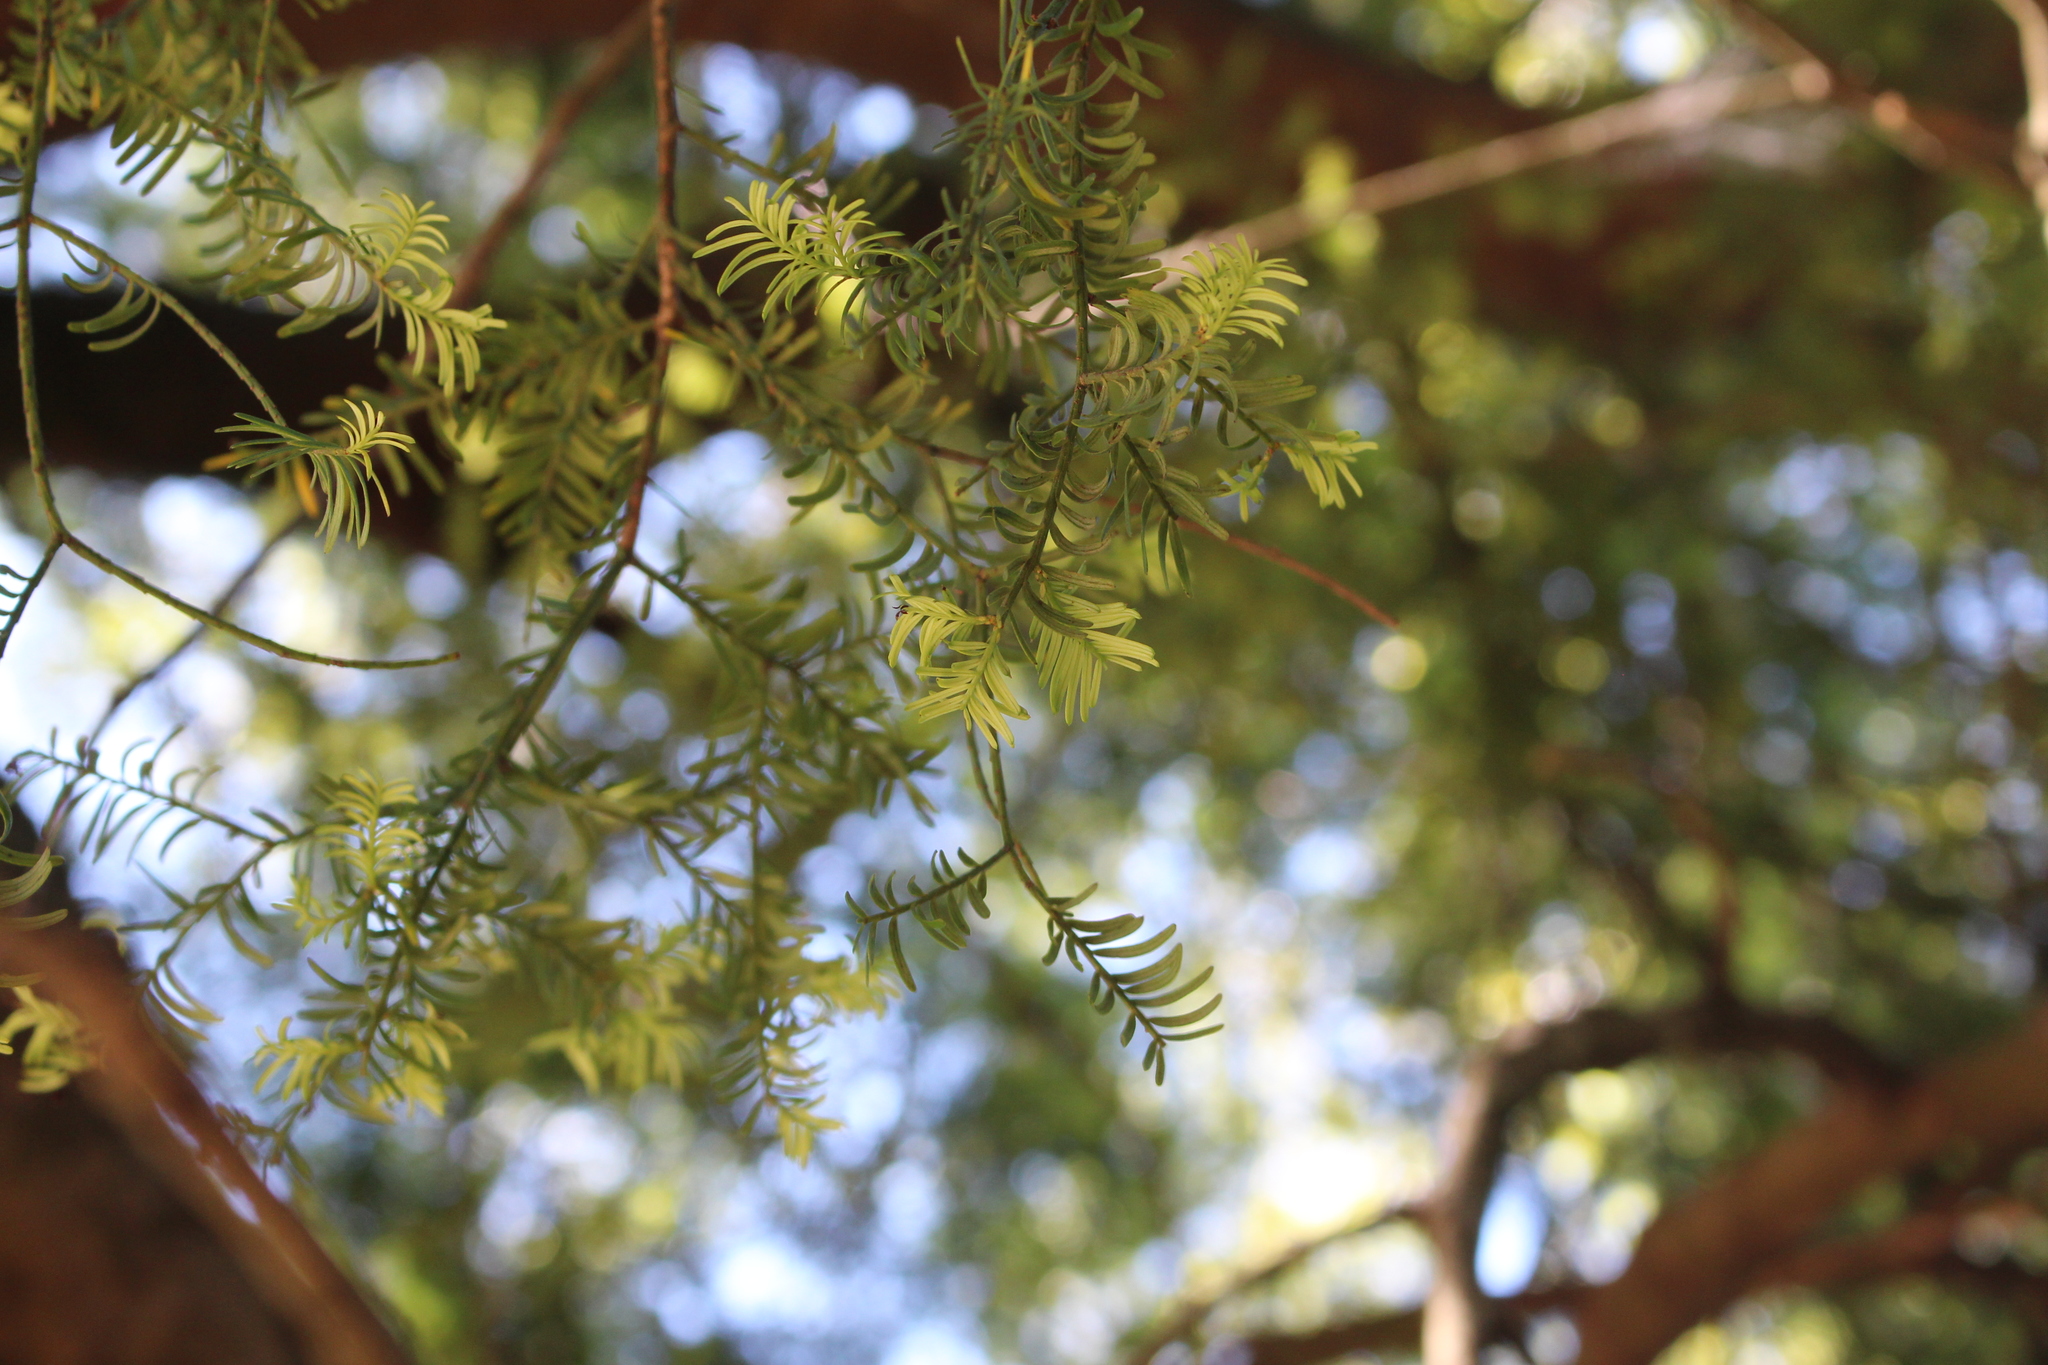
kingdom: Plantae
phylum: Tracheophyta
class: Pinopsida
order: Pinales
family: Podocarpaceae
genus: Prumnopitys
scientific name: Prumnopitys taxifolia
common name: Matai
